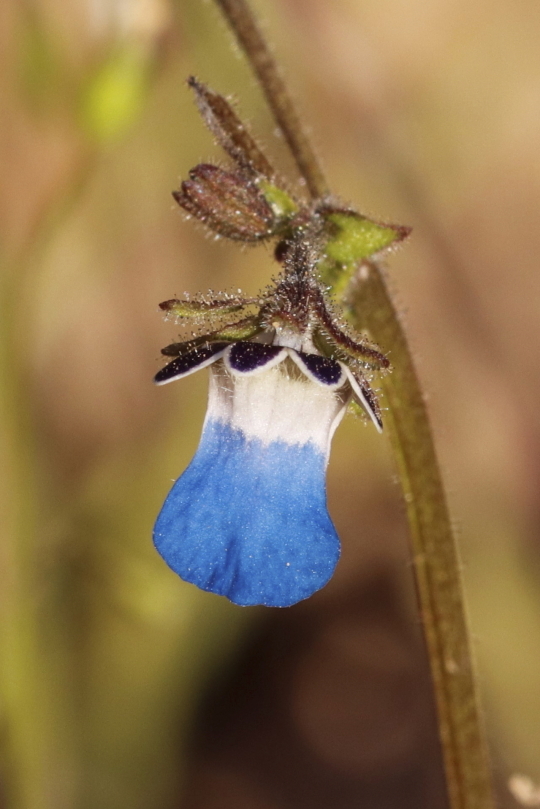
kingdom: Plantae
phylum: Tracheophyta
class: Magnoliopsida
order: Lamiales
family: Scrophulariaceae
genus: Nemesia
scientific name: Nemesia barbata
